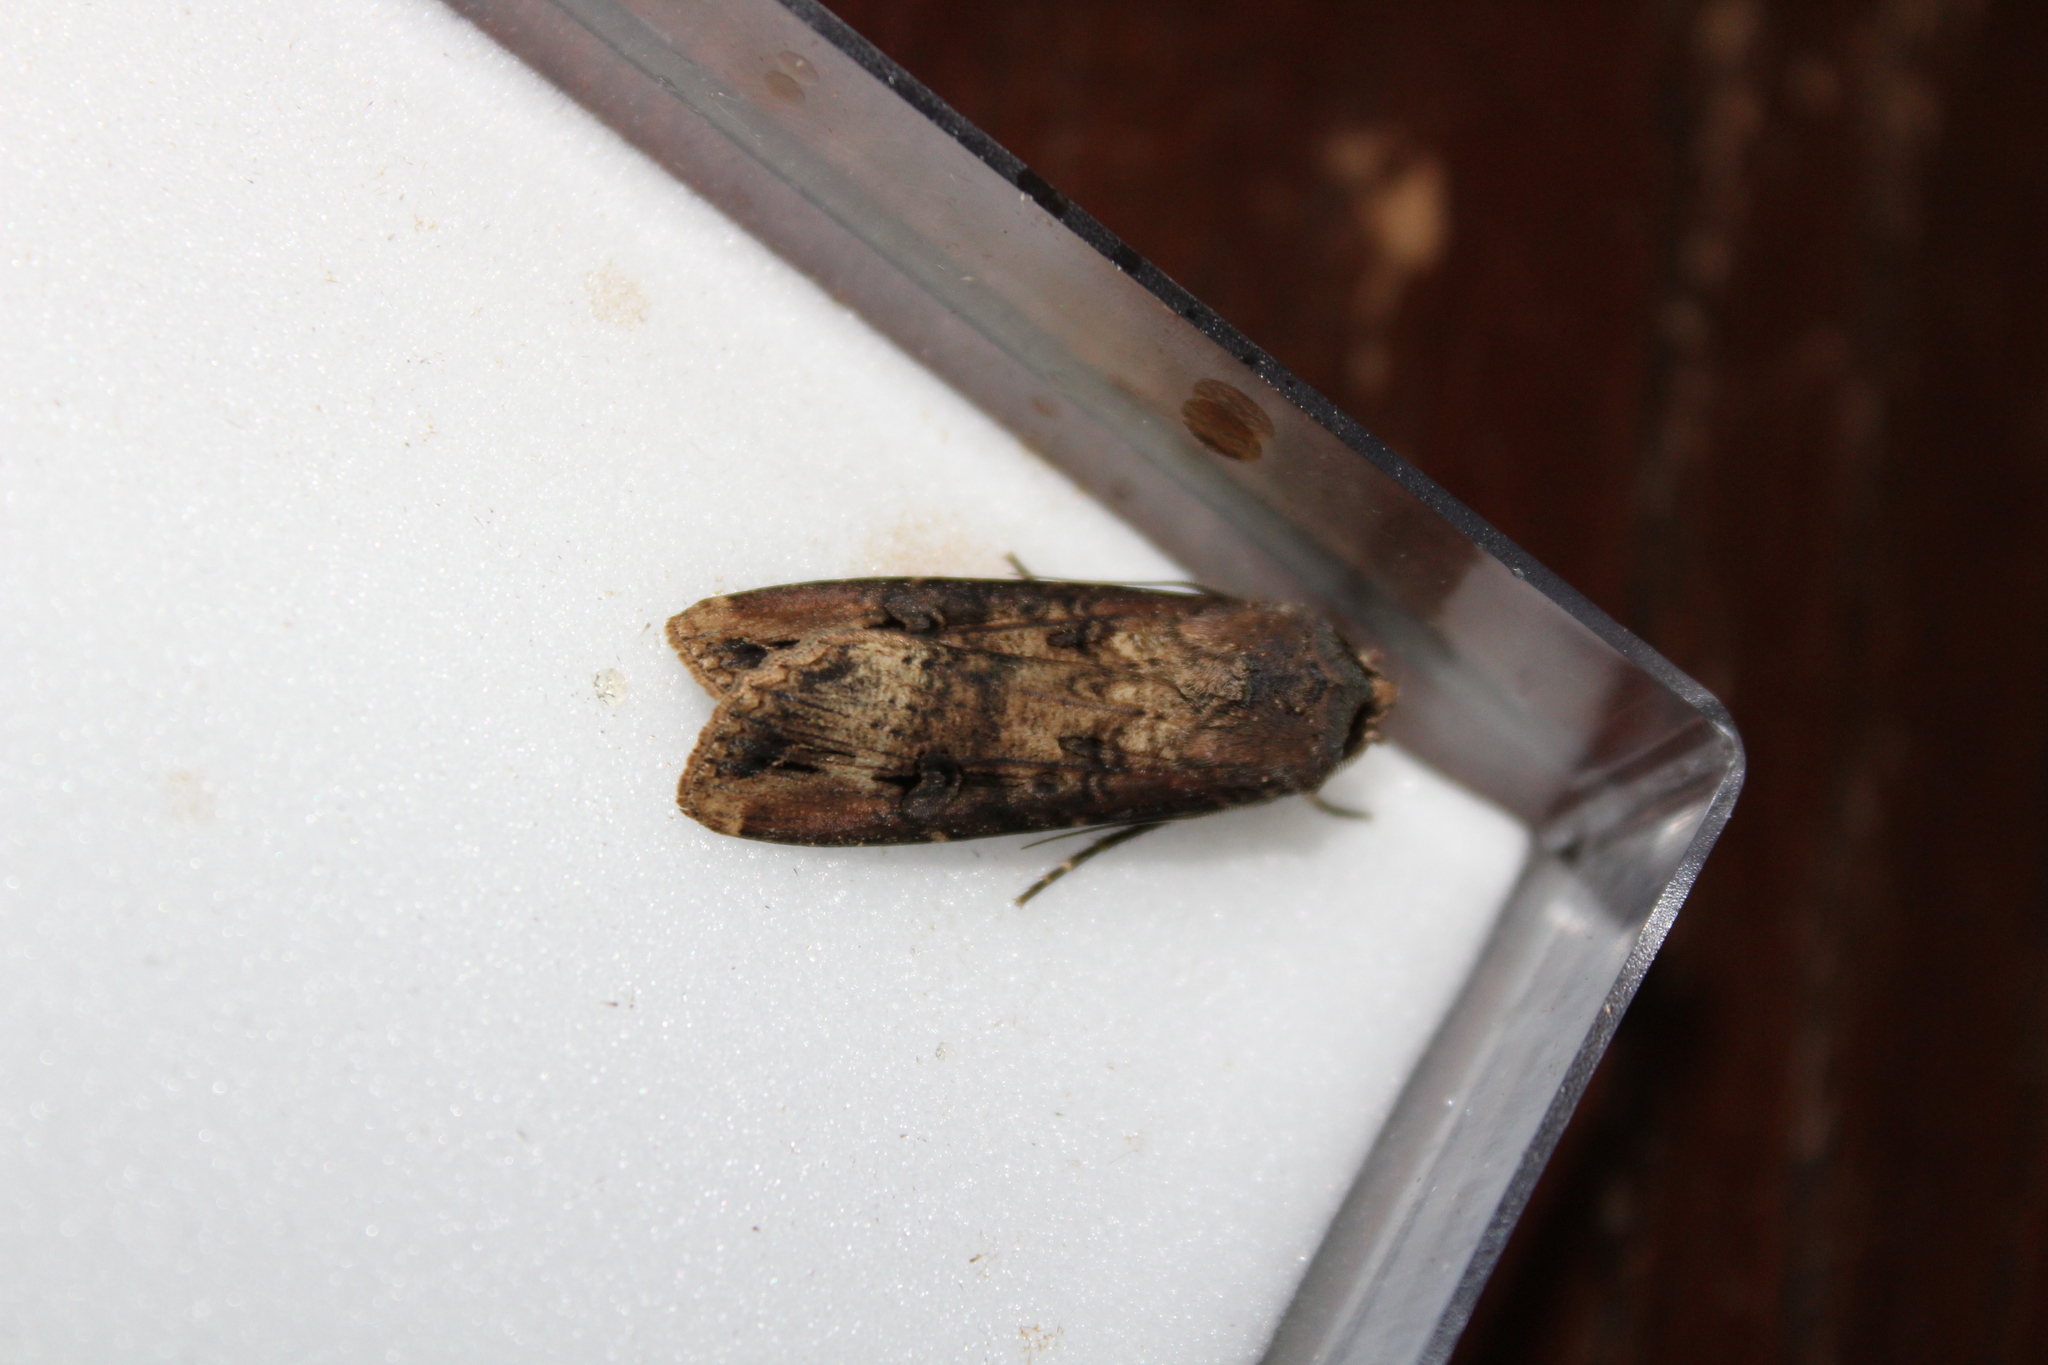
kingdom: Animalia
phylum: Arthropoda
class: Insecta
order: Lepidoptera
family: Noctuidae
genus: Agrotis
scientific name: Agrotis ipsilon
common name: Dark sword-grass
